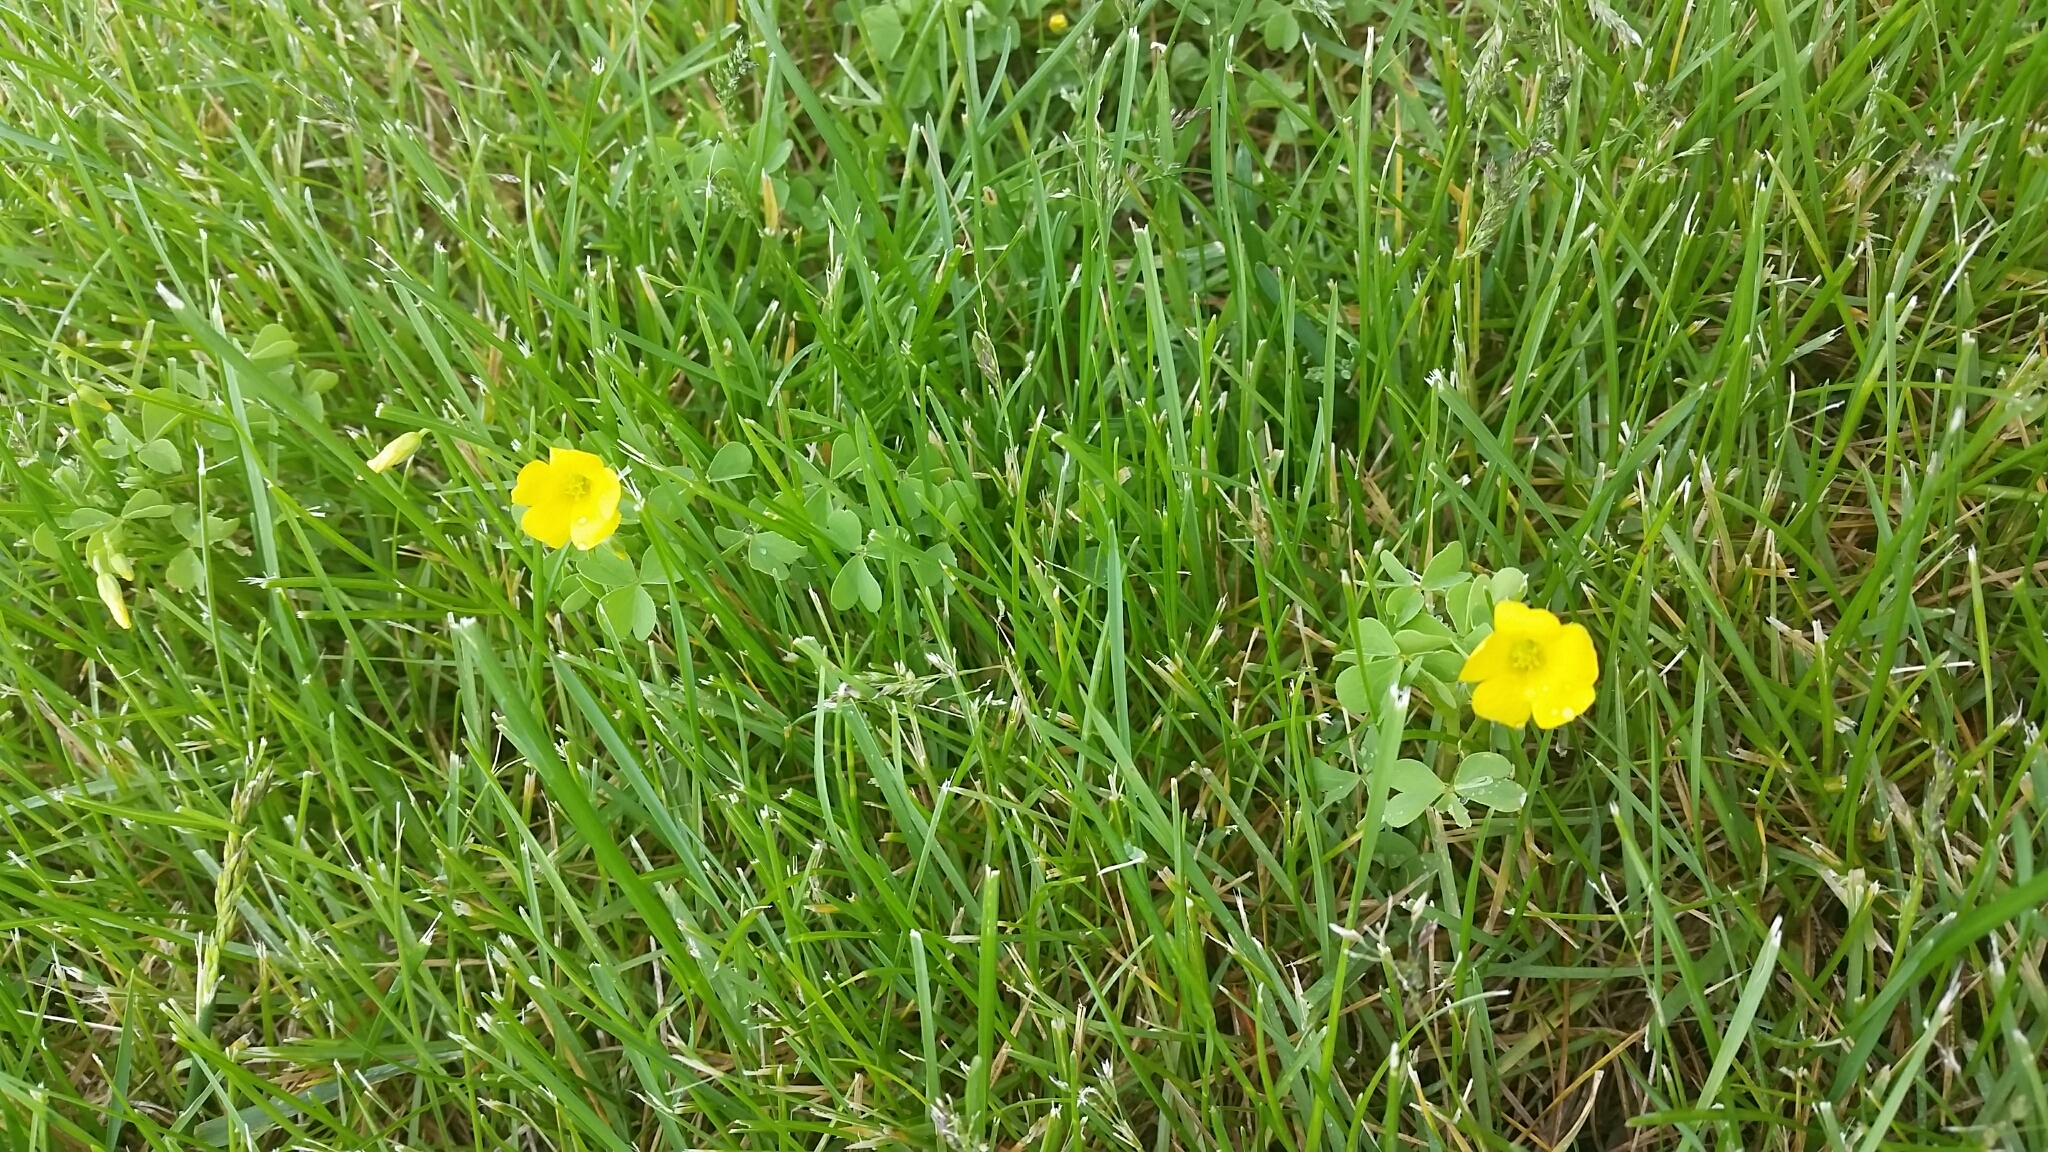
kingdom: Plantae
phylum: Tracheophyta
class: Magnoliopsida
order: Oxalidales
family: Oxalidaceae
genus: Oxalis
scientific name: Oxalis stricta
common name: Upright yellow-sorrel
